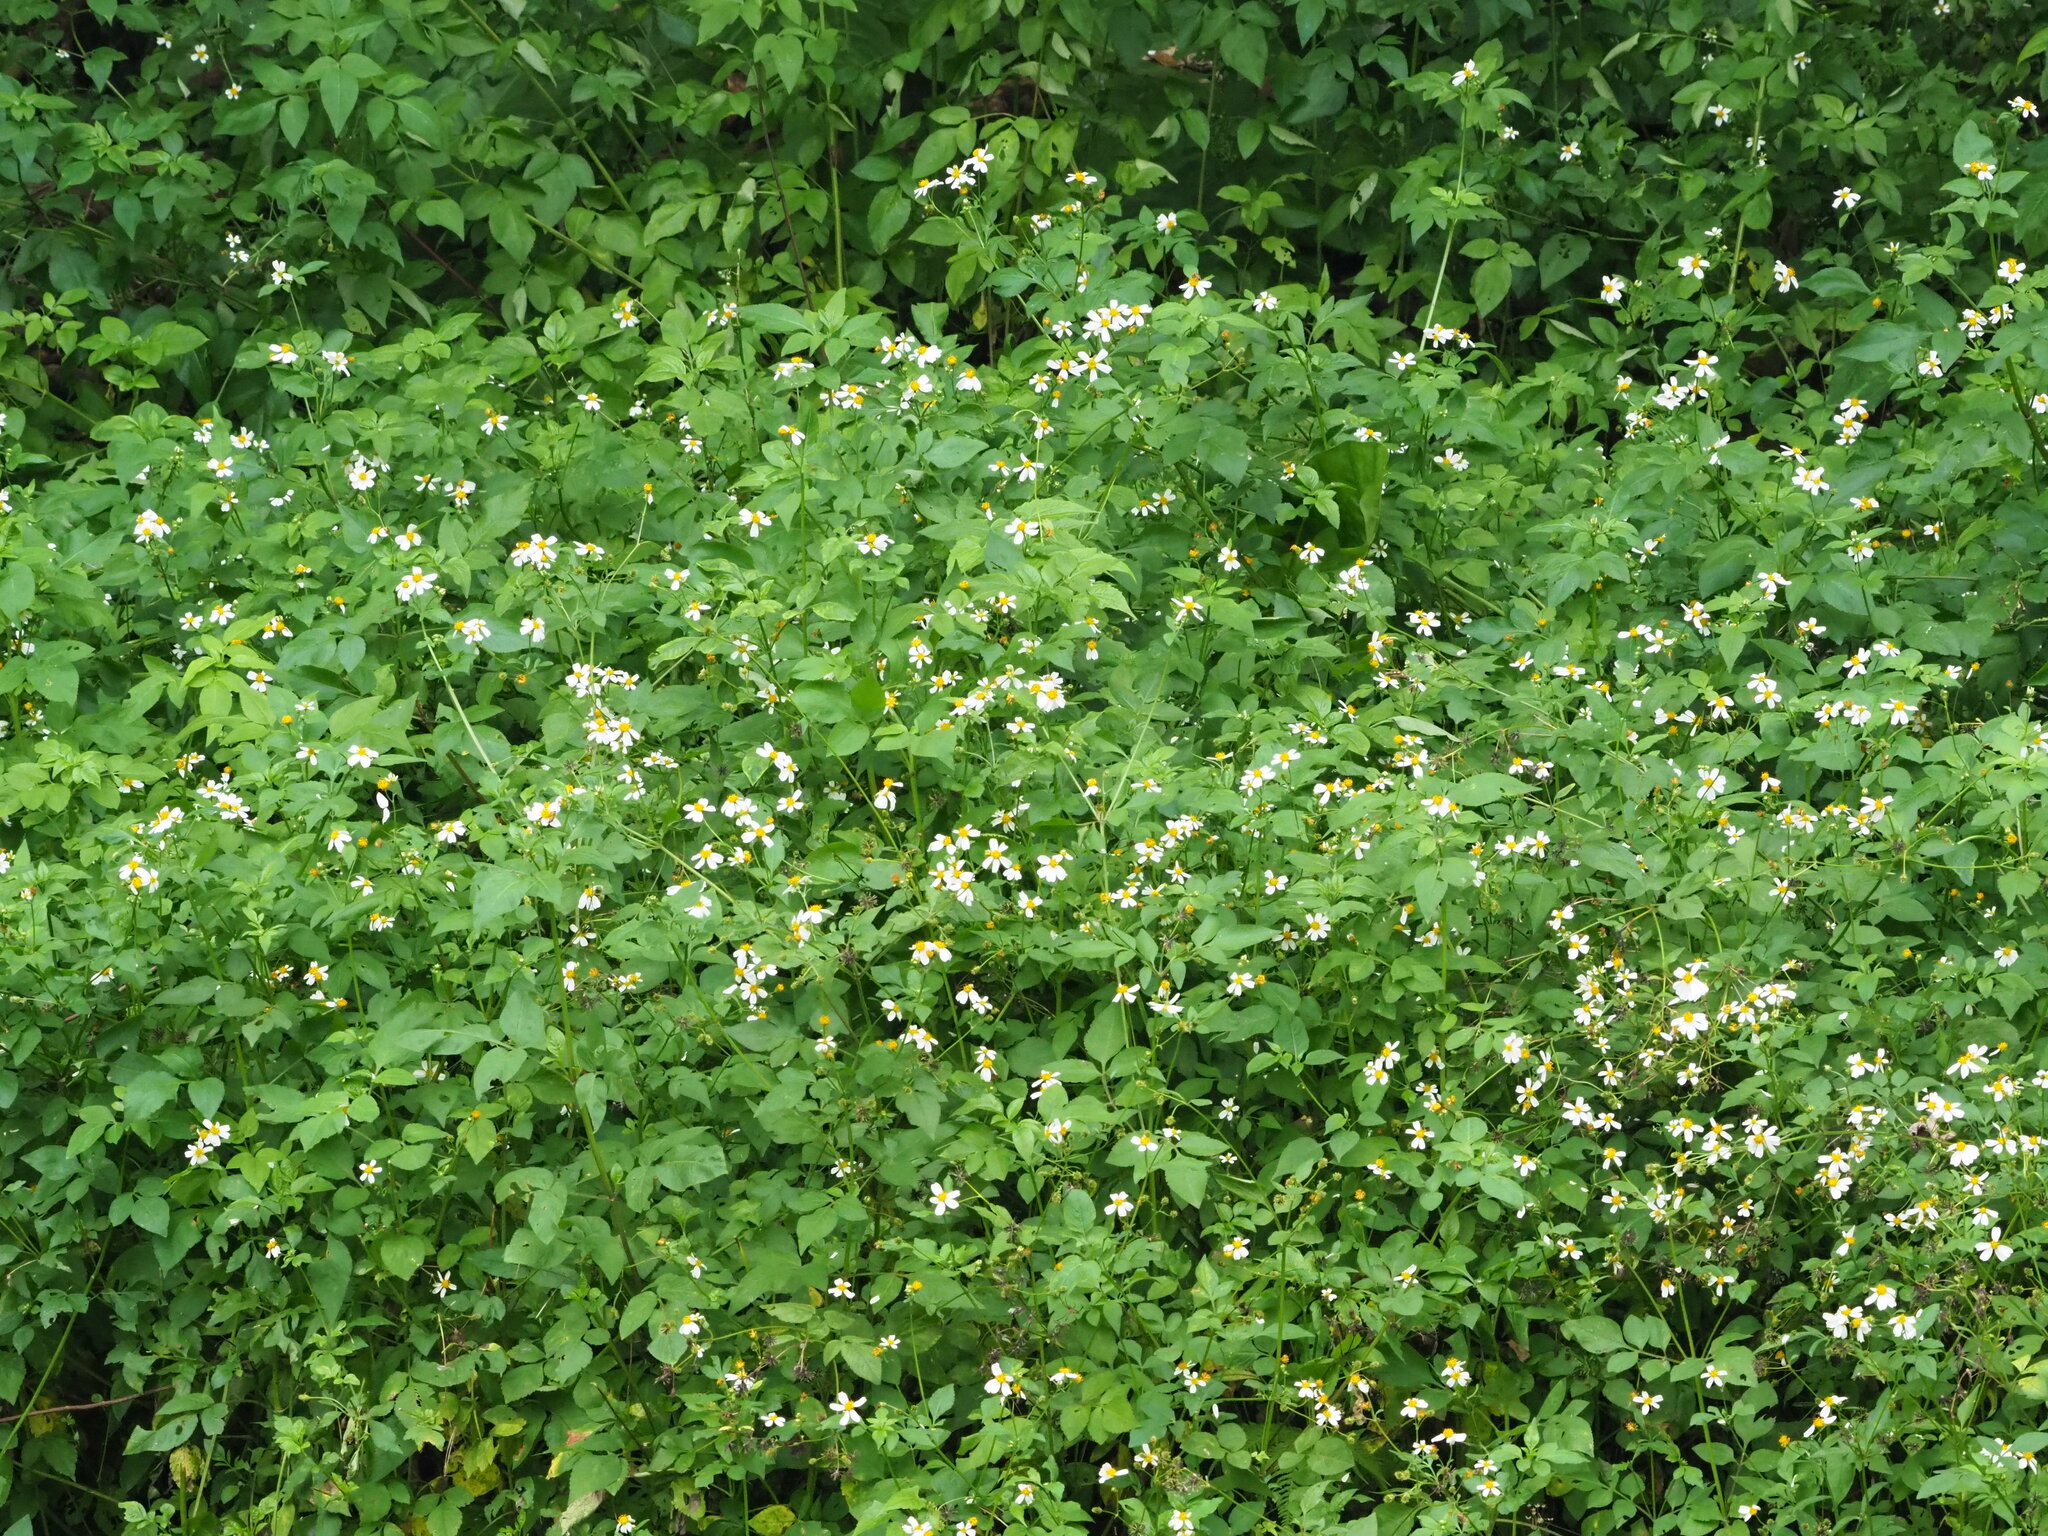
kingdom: Plantae
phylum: Tracheophyta
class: Magnoliopsida
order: Asterales
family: Asteraceae
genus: Bidens
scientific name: Bidens alba
